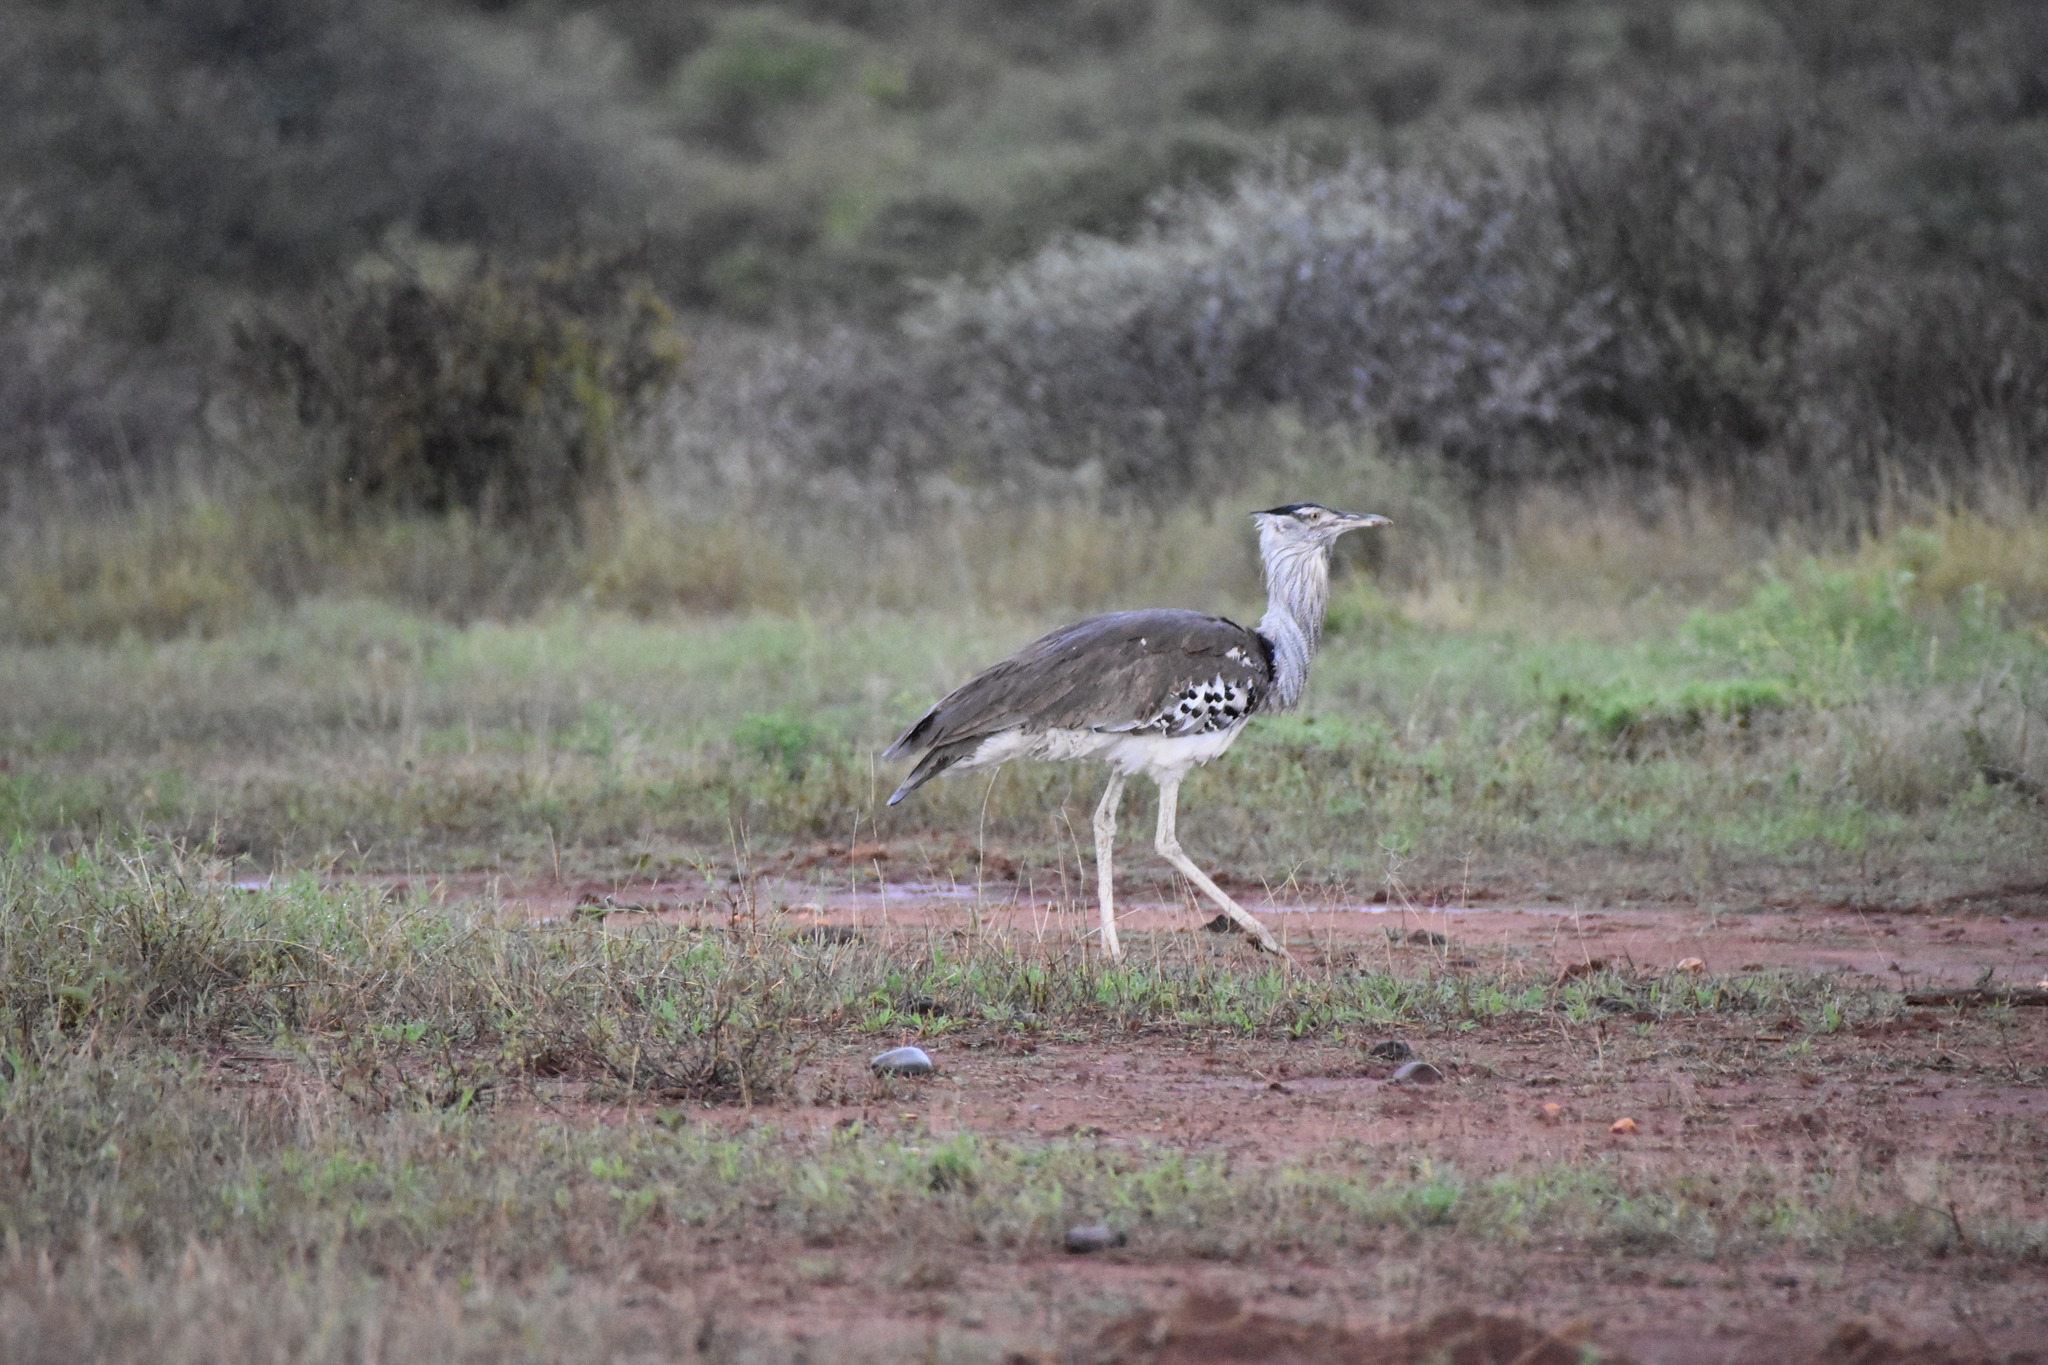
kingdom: Animalia
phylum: Chordata
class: Aves
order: Otidiformes
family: Otididae
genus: Ardeotis
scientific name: Ardeotis kori
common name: Kori bustard
